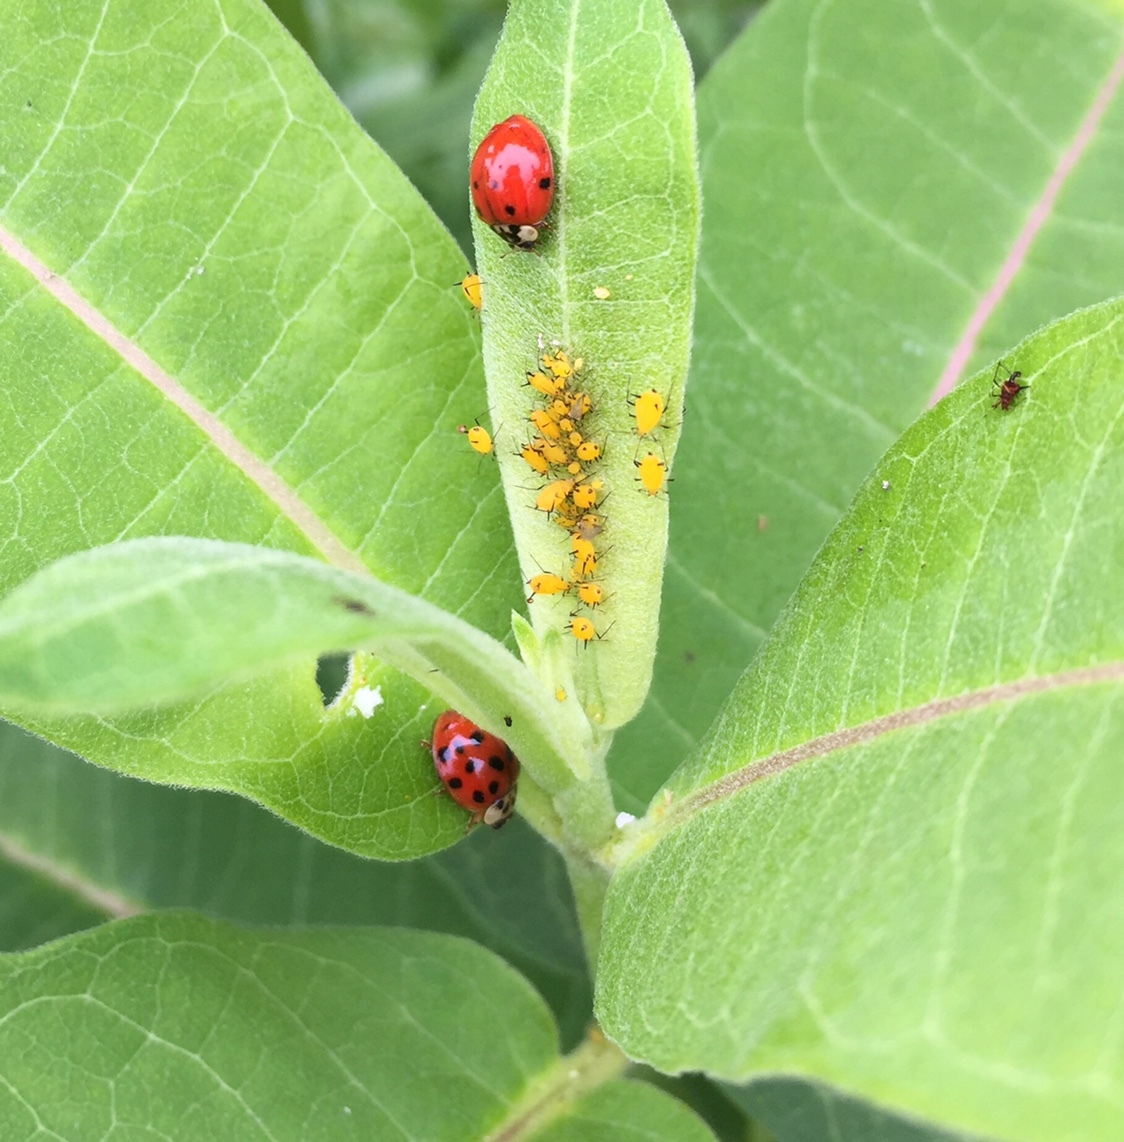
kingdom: Animalia
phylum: Arthropoda
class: Insecta
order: Coleoptera
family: Coccinellidae
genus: Harmonia
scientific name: Harmonia axyridis
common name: Harlequin ladybird
